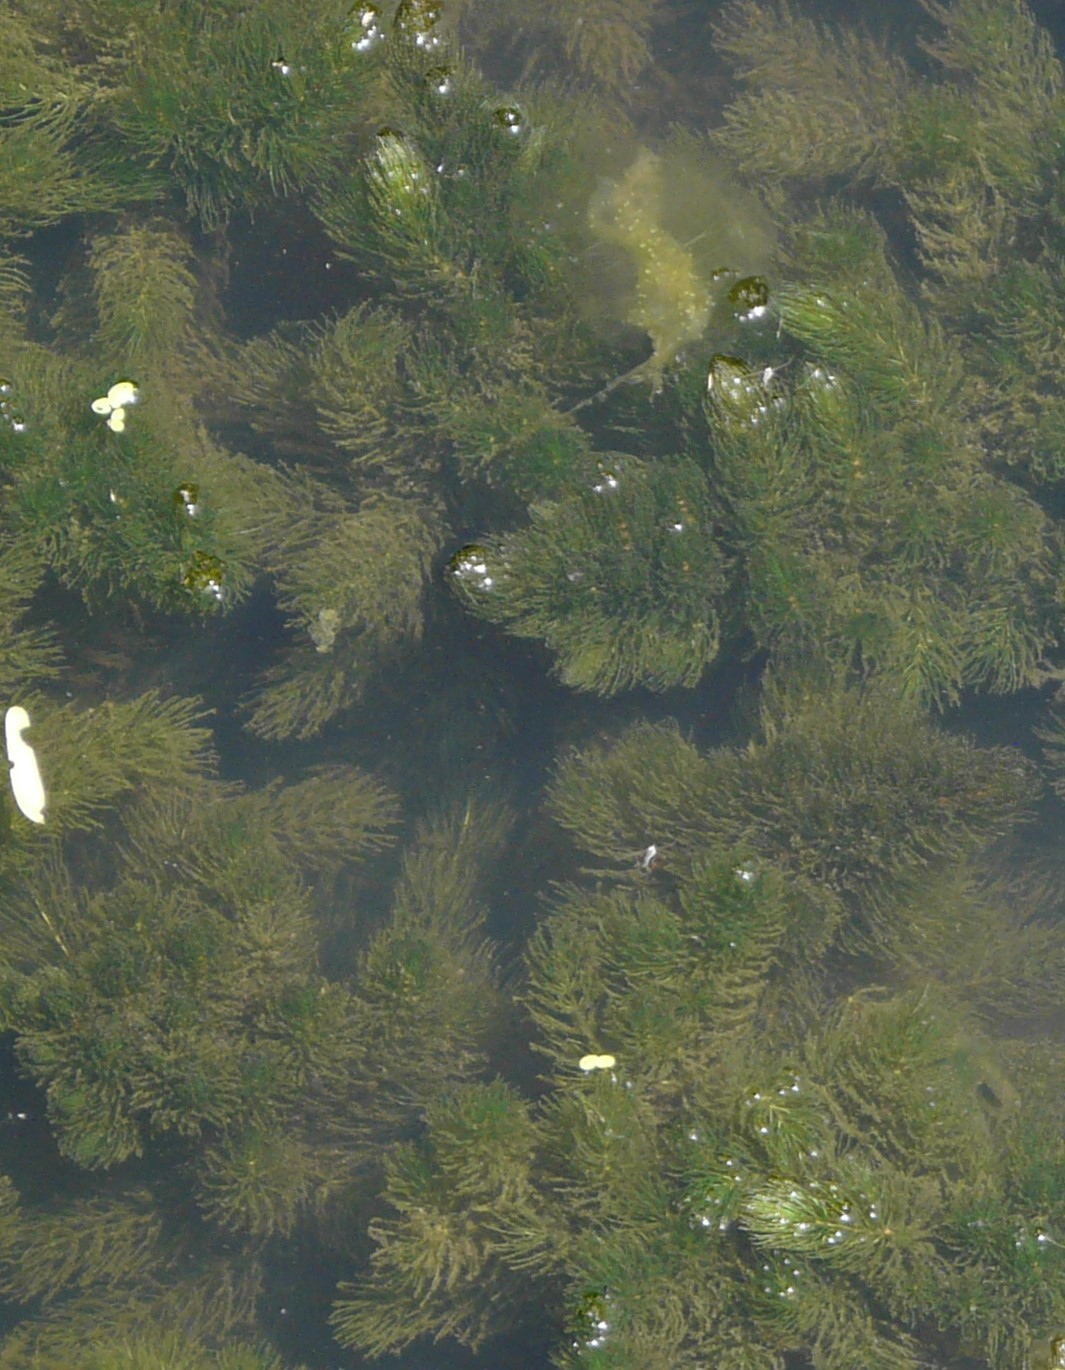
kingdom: Plantae
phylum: Tracheophyta
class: Magnoliopsida
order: Ceratophyllales
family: Ceratophyllaceae
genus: Ceratophyllum
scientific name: Ceratophyllum demersum
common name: Rigid hornwort
